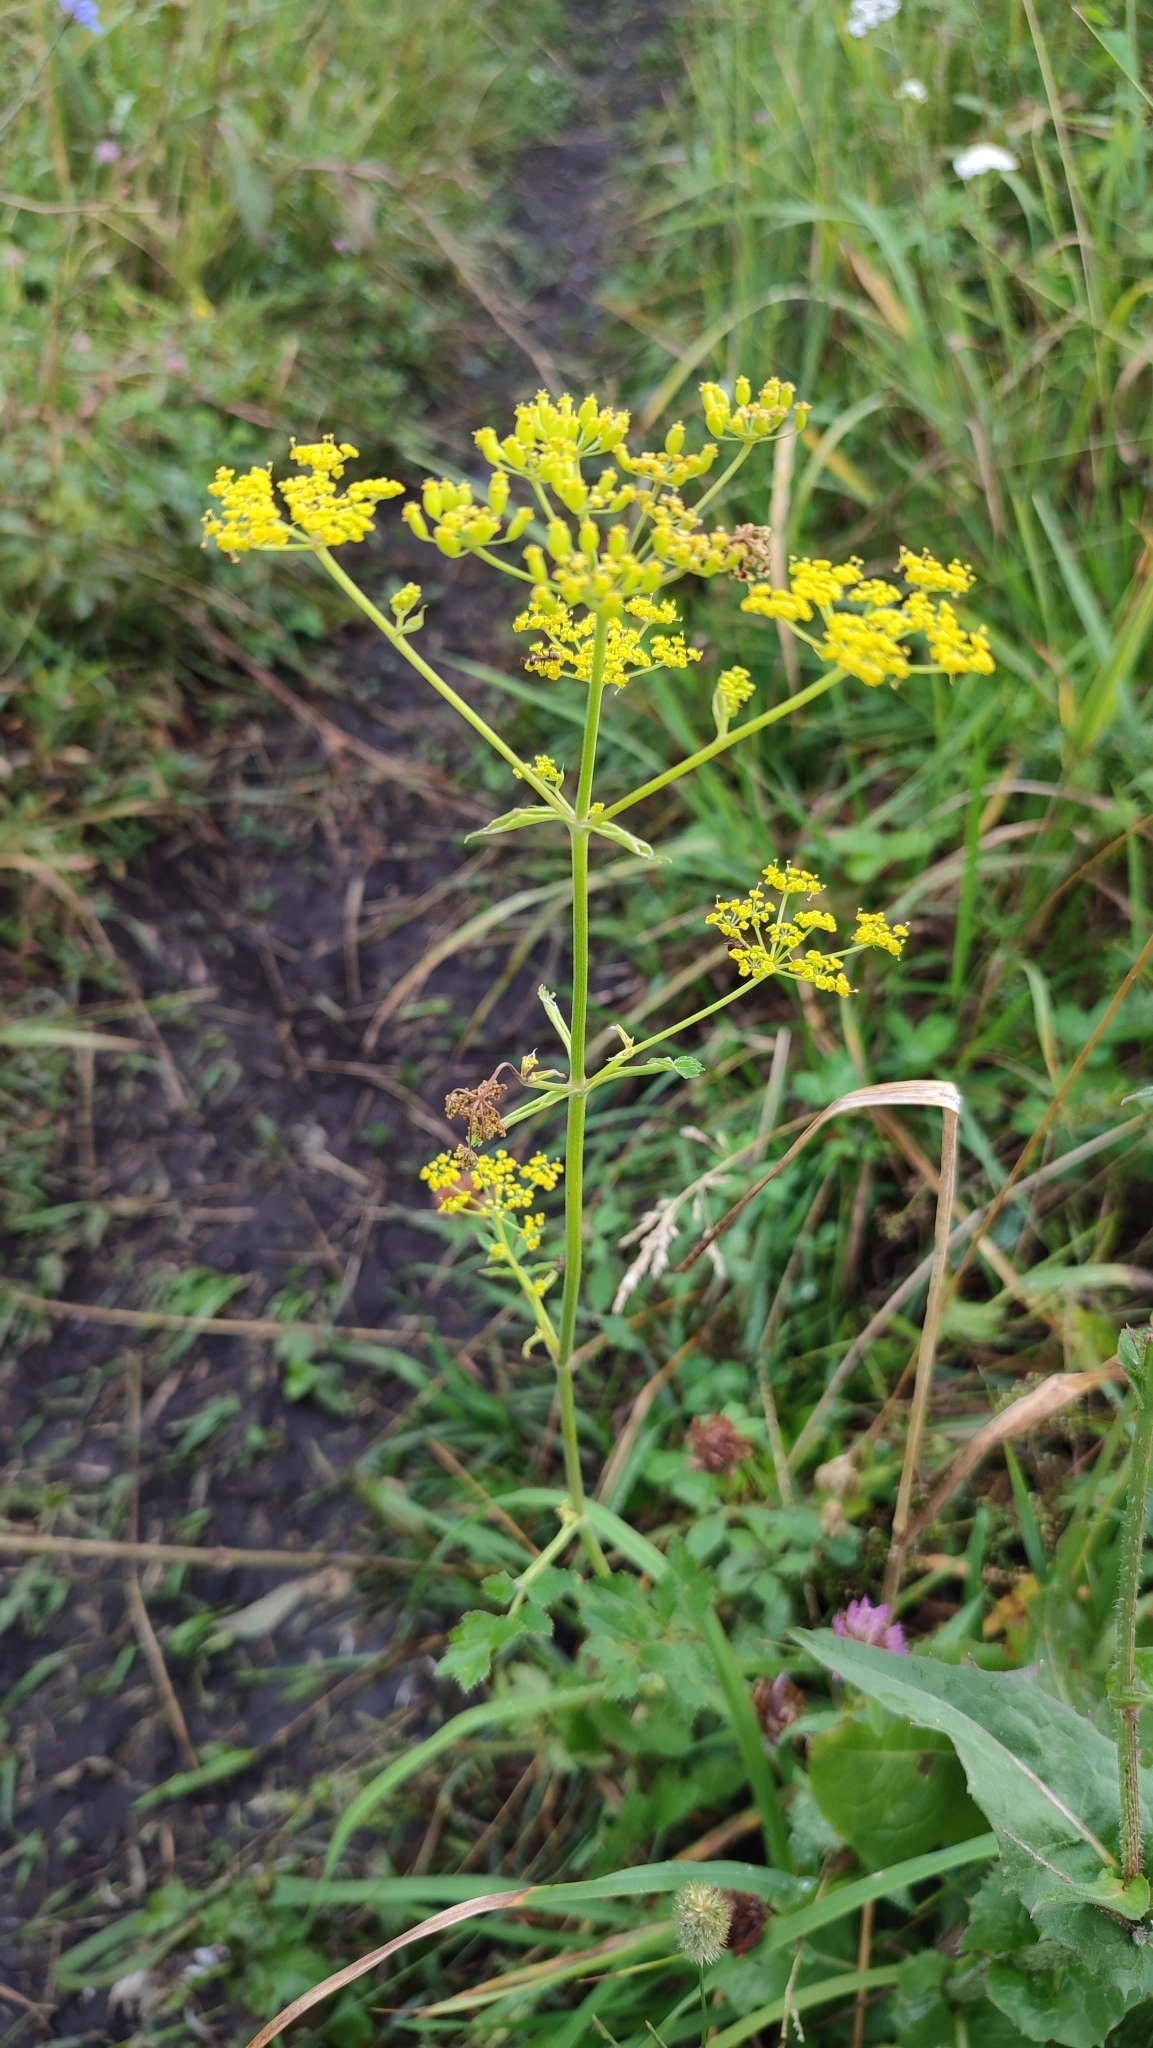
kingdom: Plantae
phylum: Tracheophyta
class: Magnoliopsida
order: Apiales
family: Apiaceae
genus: Pastinaca
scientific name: Pastinaca sativa
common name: Wild parsnip
